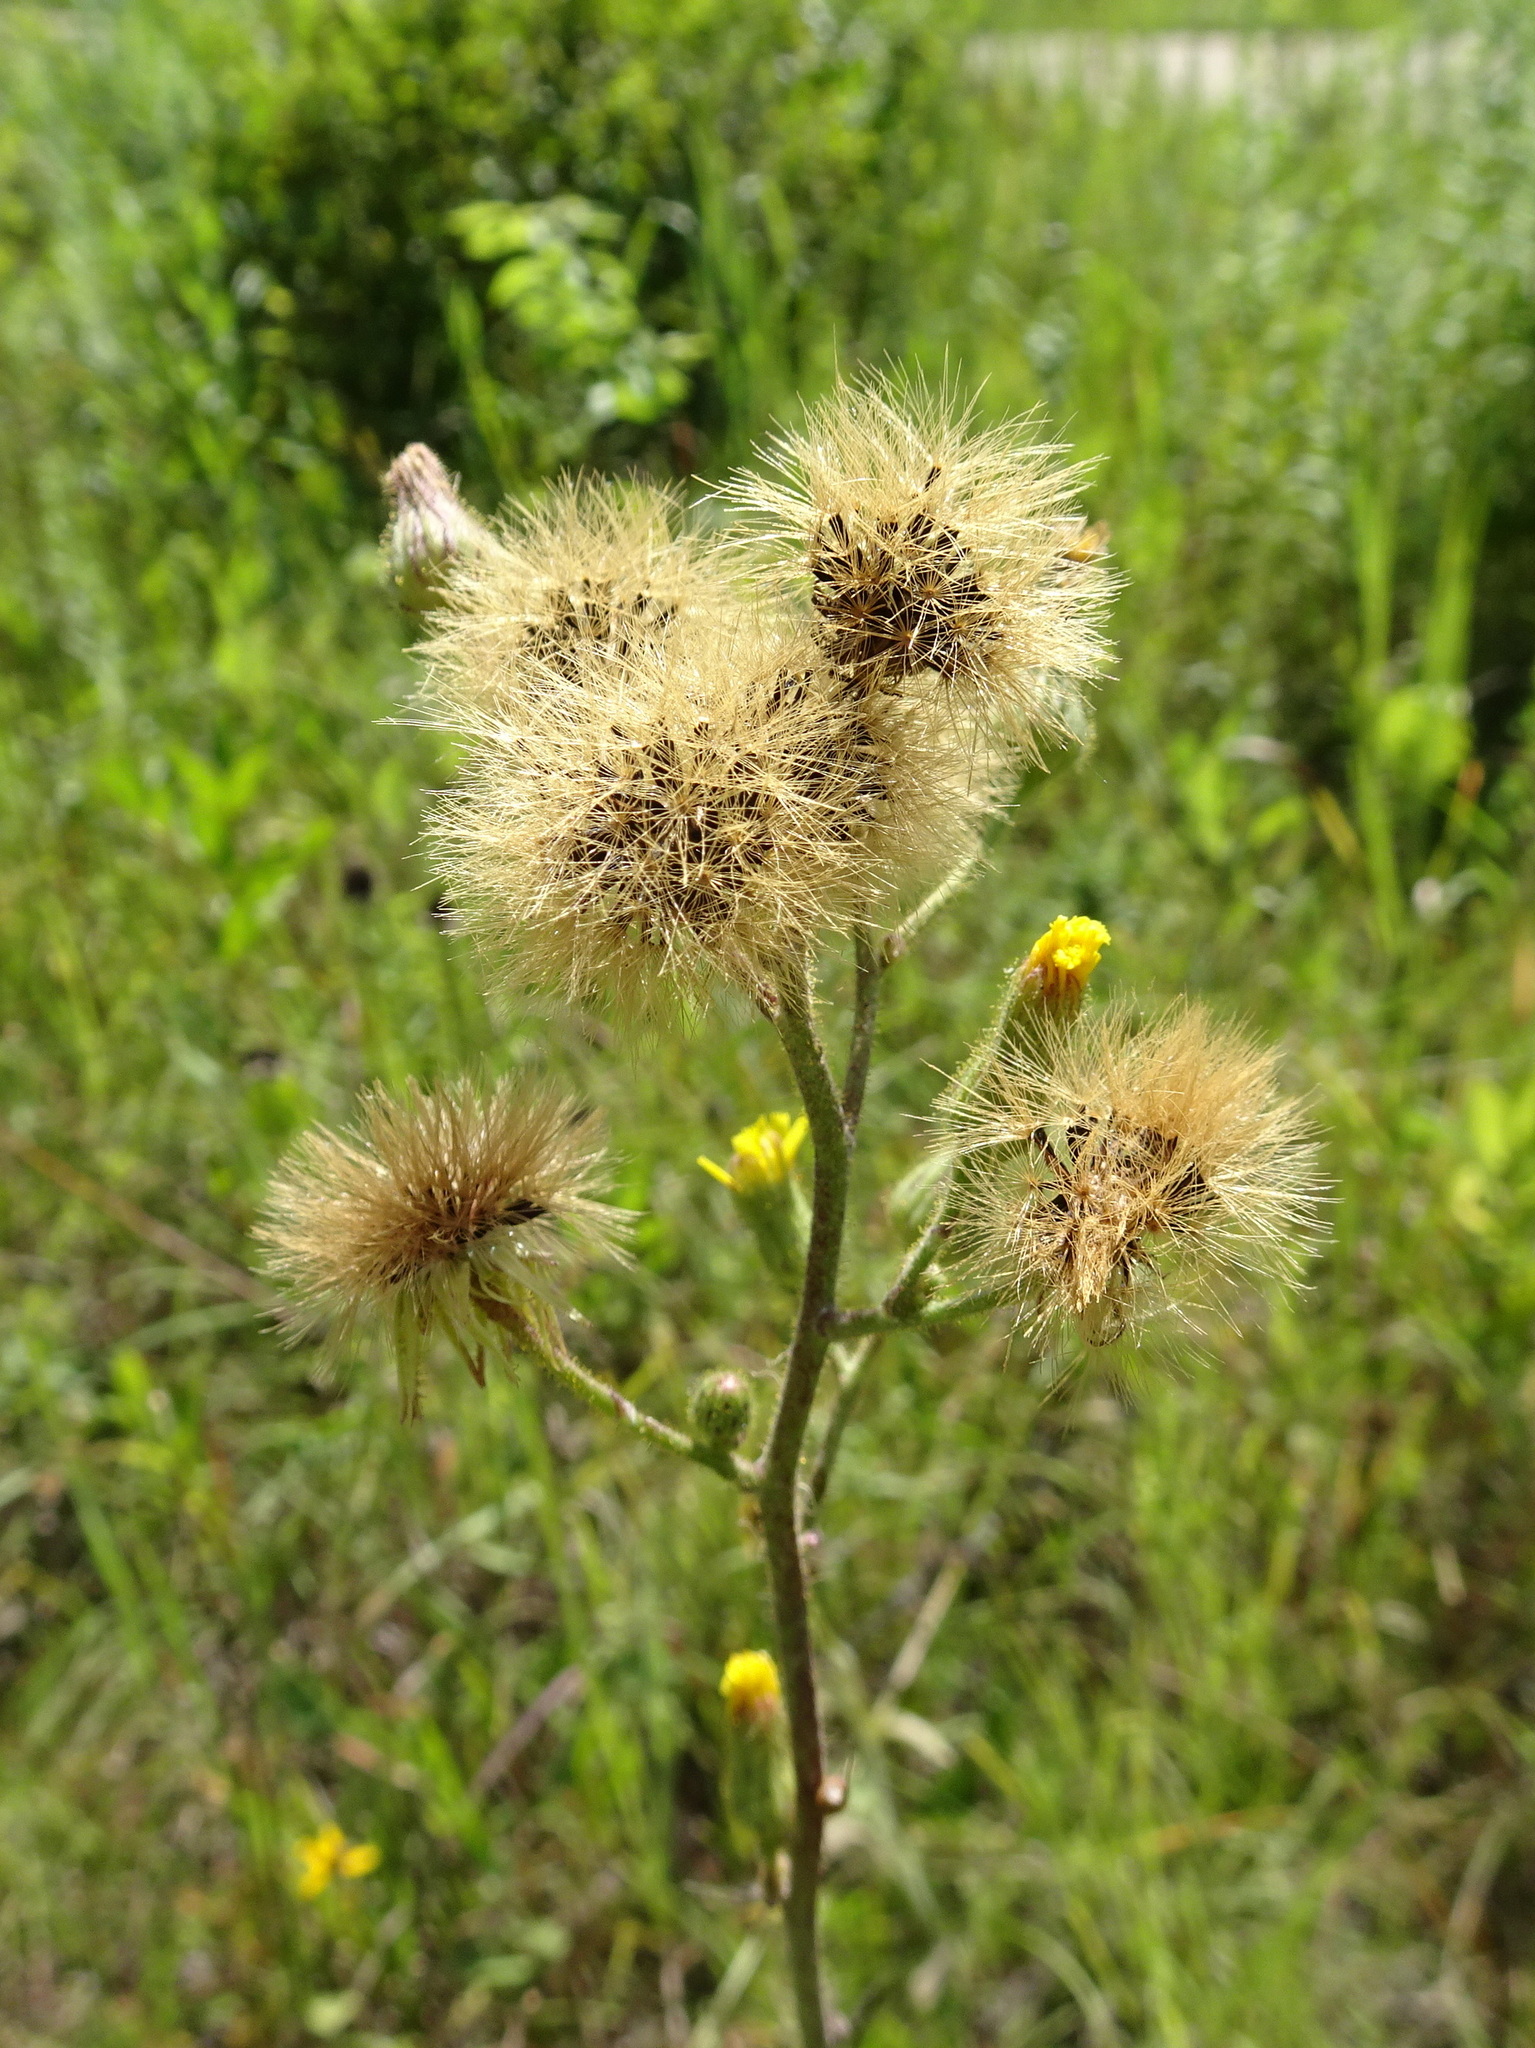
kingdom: Plantae
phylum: Tracheophyta
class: Magnoliopsida
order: Asterales
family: Asteraceae
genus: Hieracium
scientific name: Hieracium longipilum
